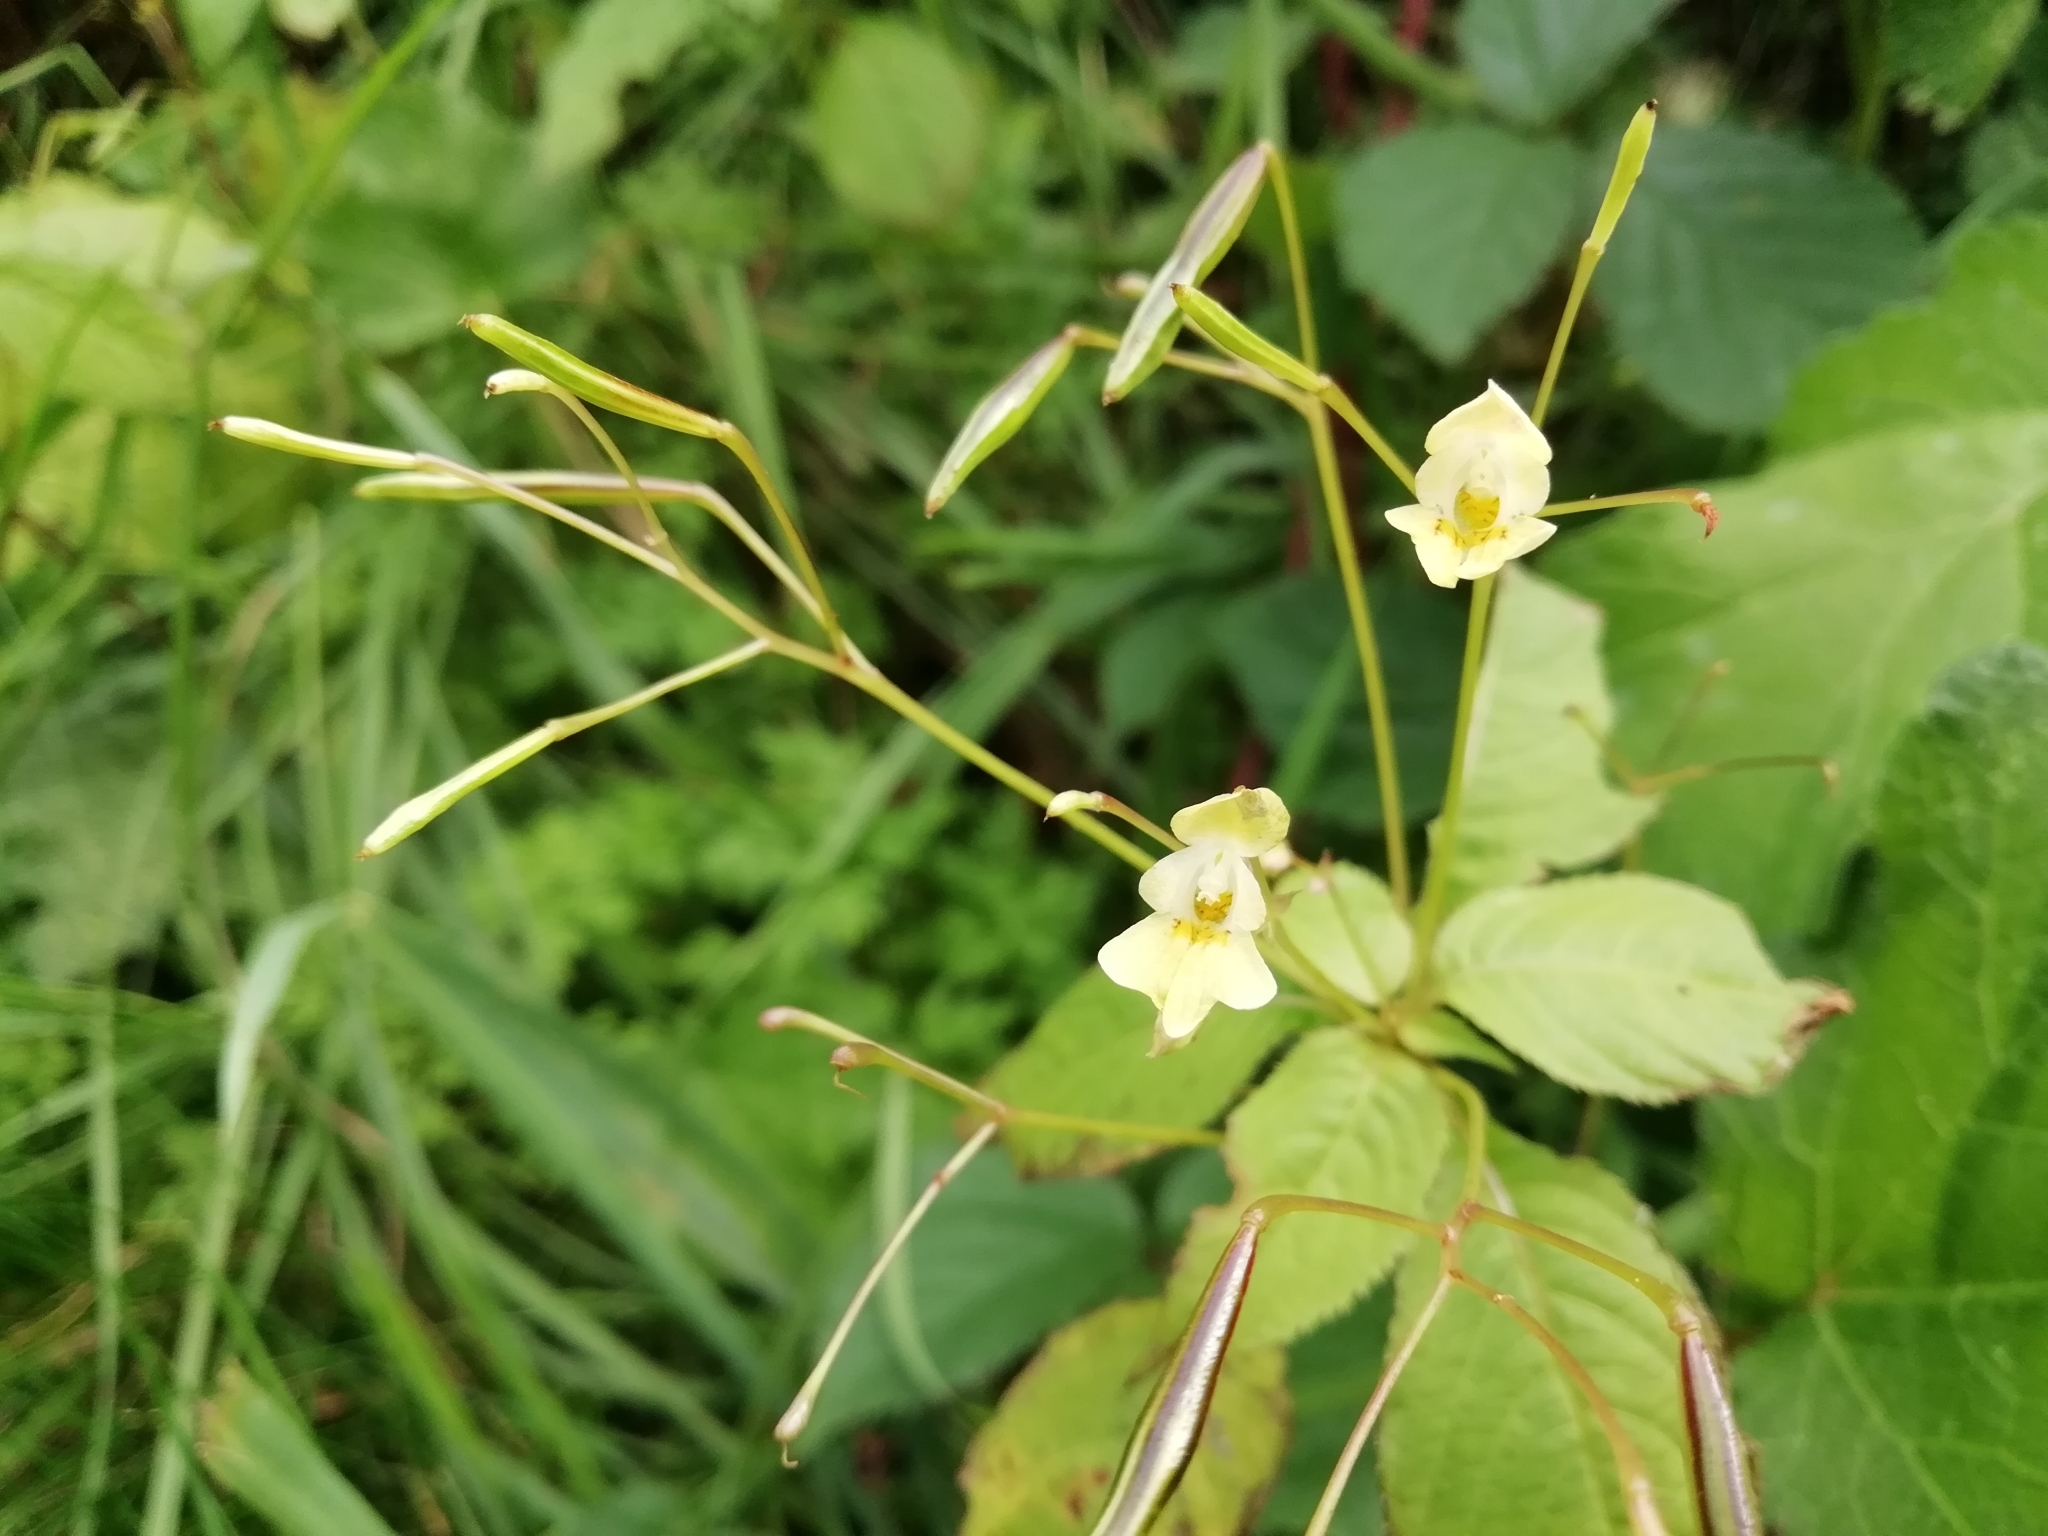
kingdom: Plantae
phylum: Tracheophyta
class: Magnoliopsida
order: Ericales
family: Balsaminaceae
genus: Impatiens
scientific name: Impatiens parviflora
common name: Small balsam
